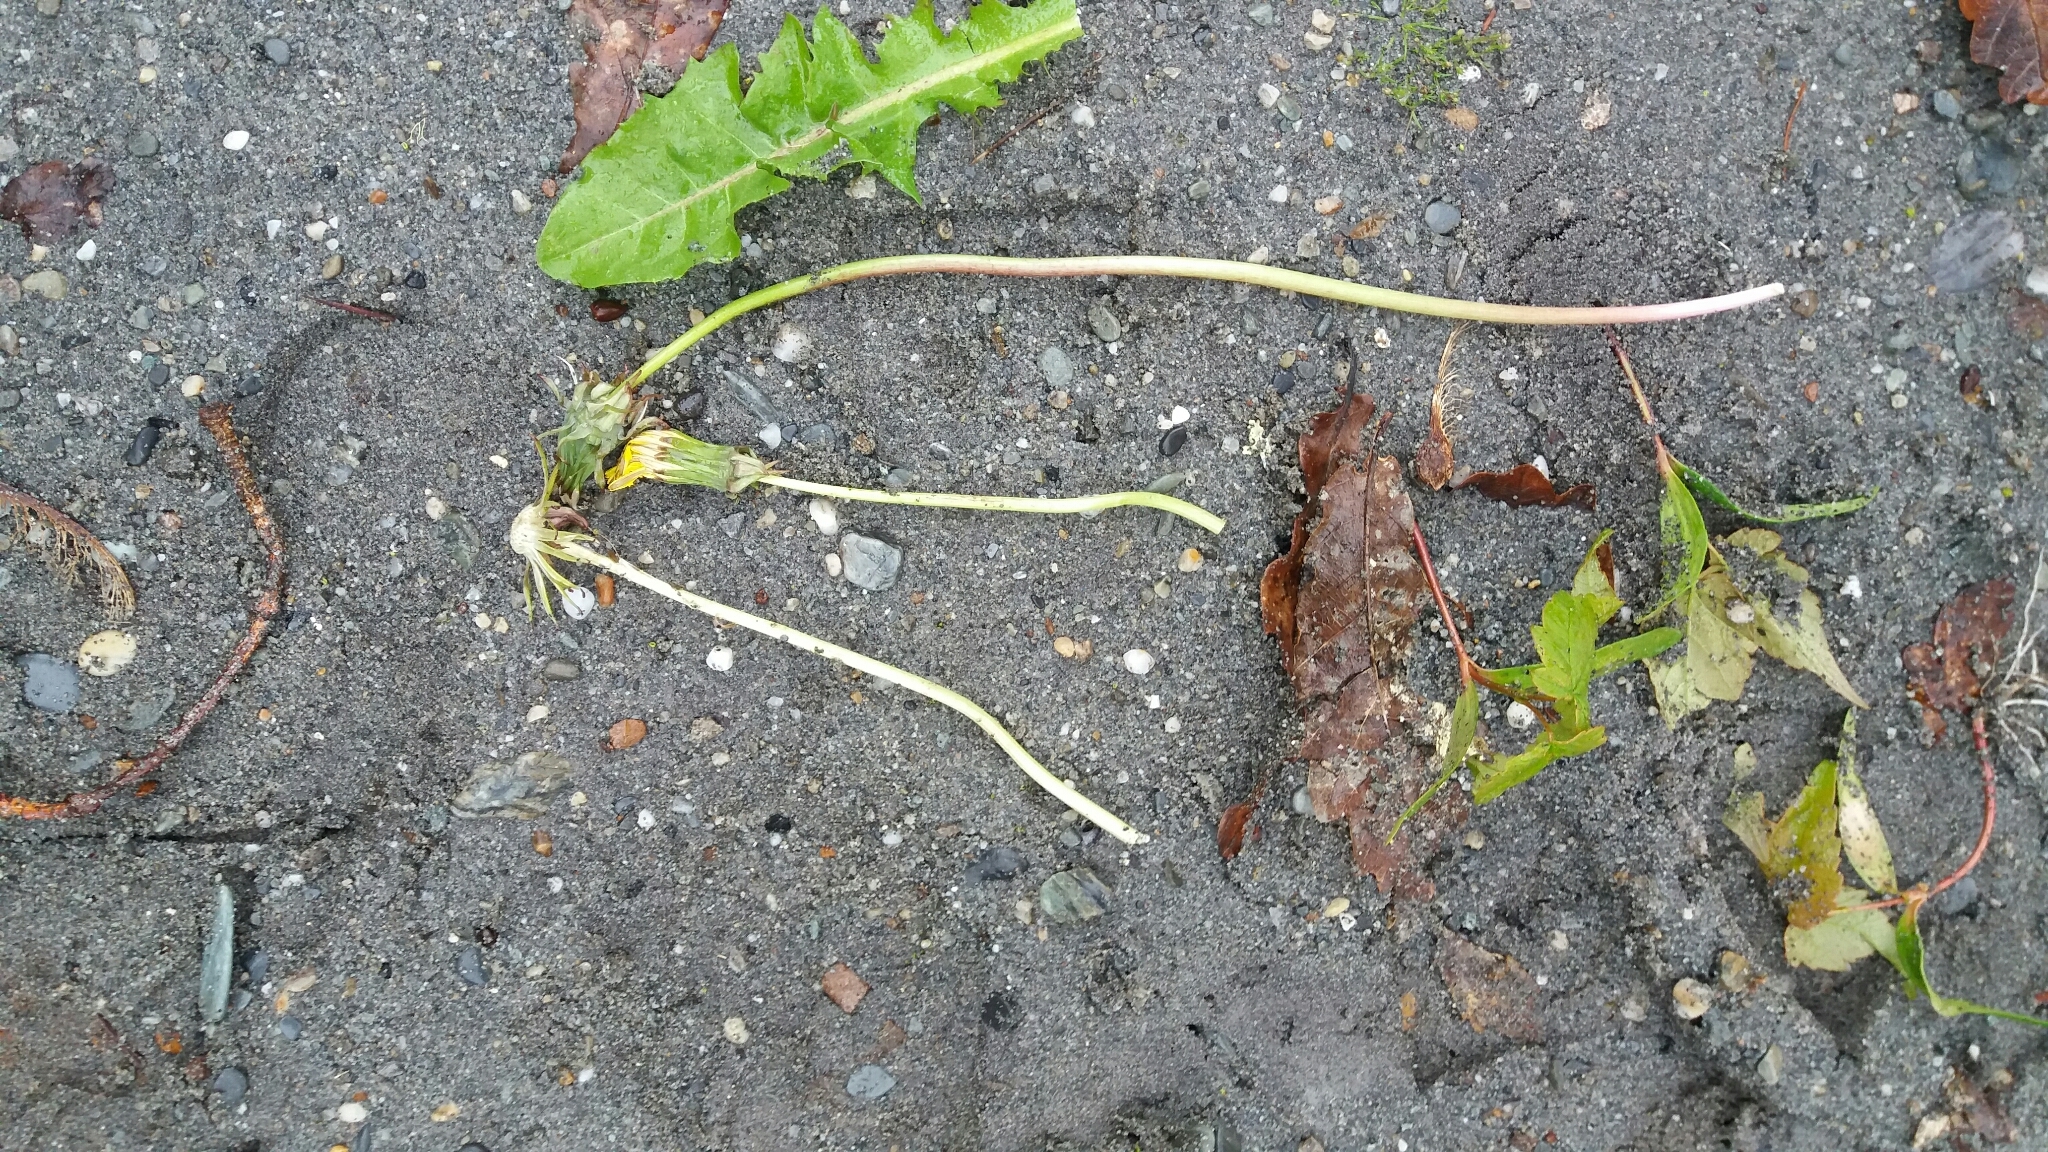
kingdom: Plantae
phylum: Tracheophyta
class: Magnoliopsida
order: Asterales
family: Asteraceae
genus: Taraxacum
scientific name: Taraxacum officinale
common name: Common dandelion
